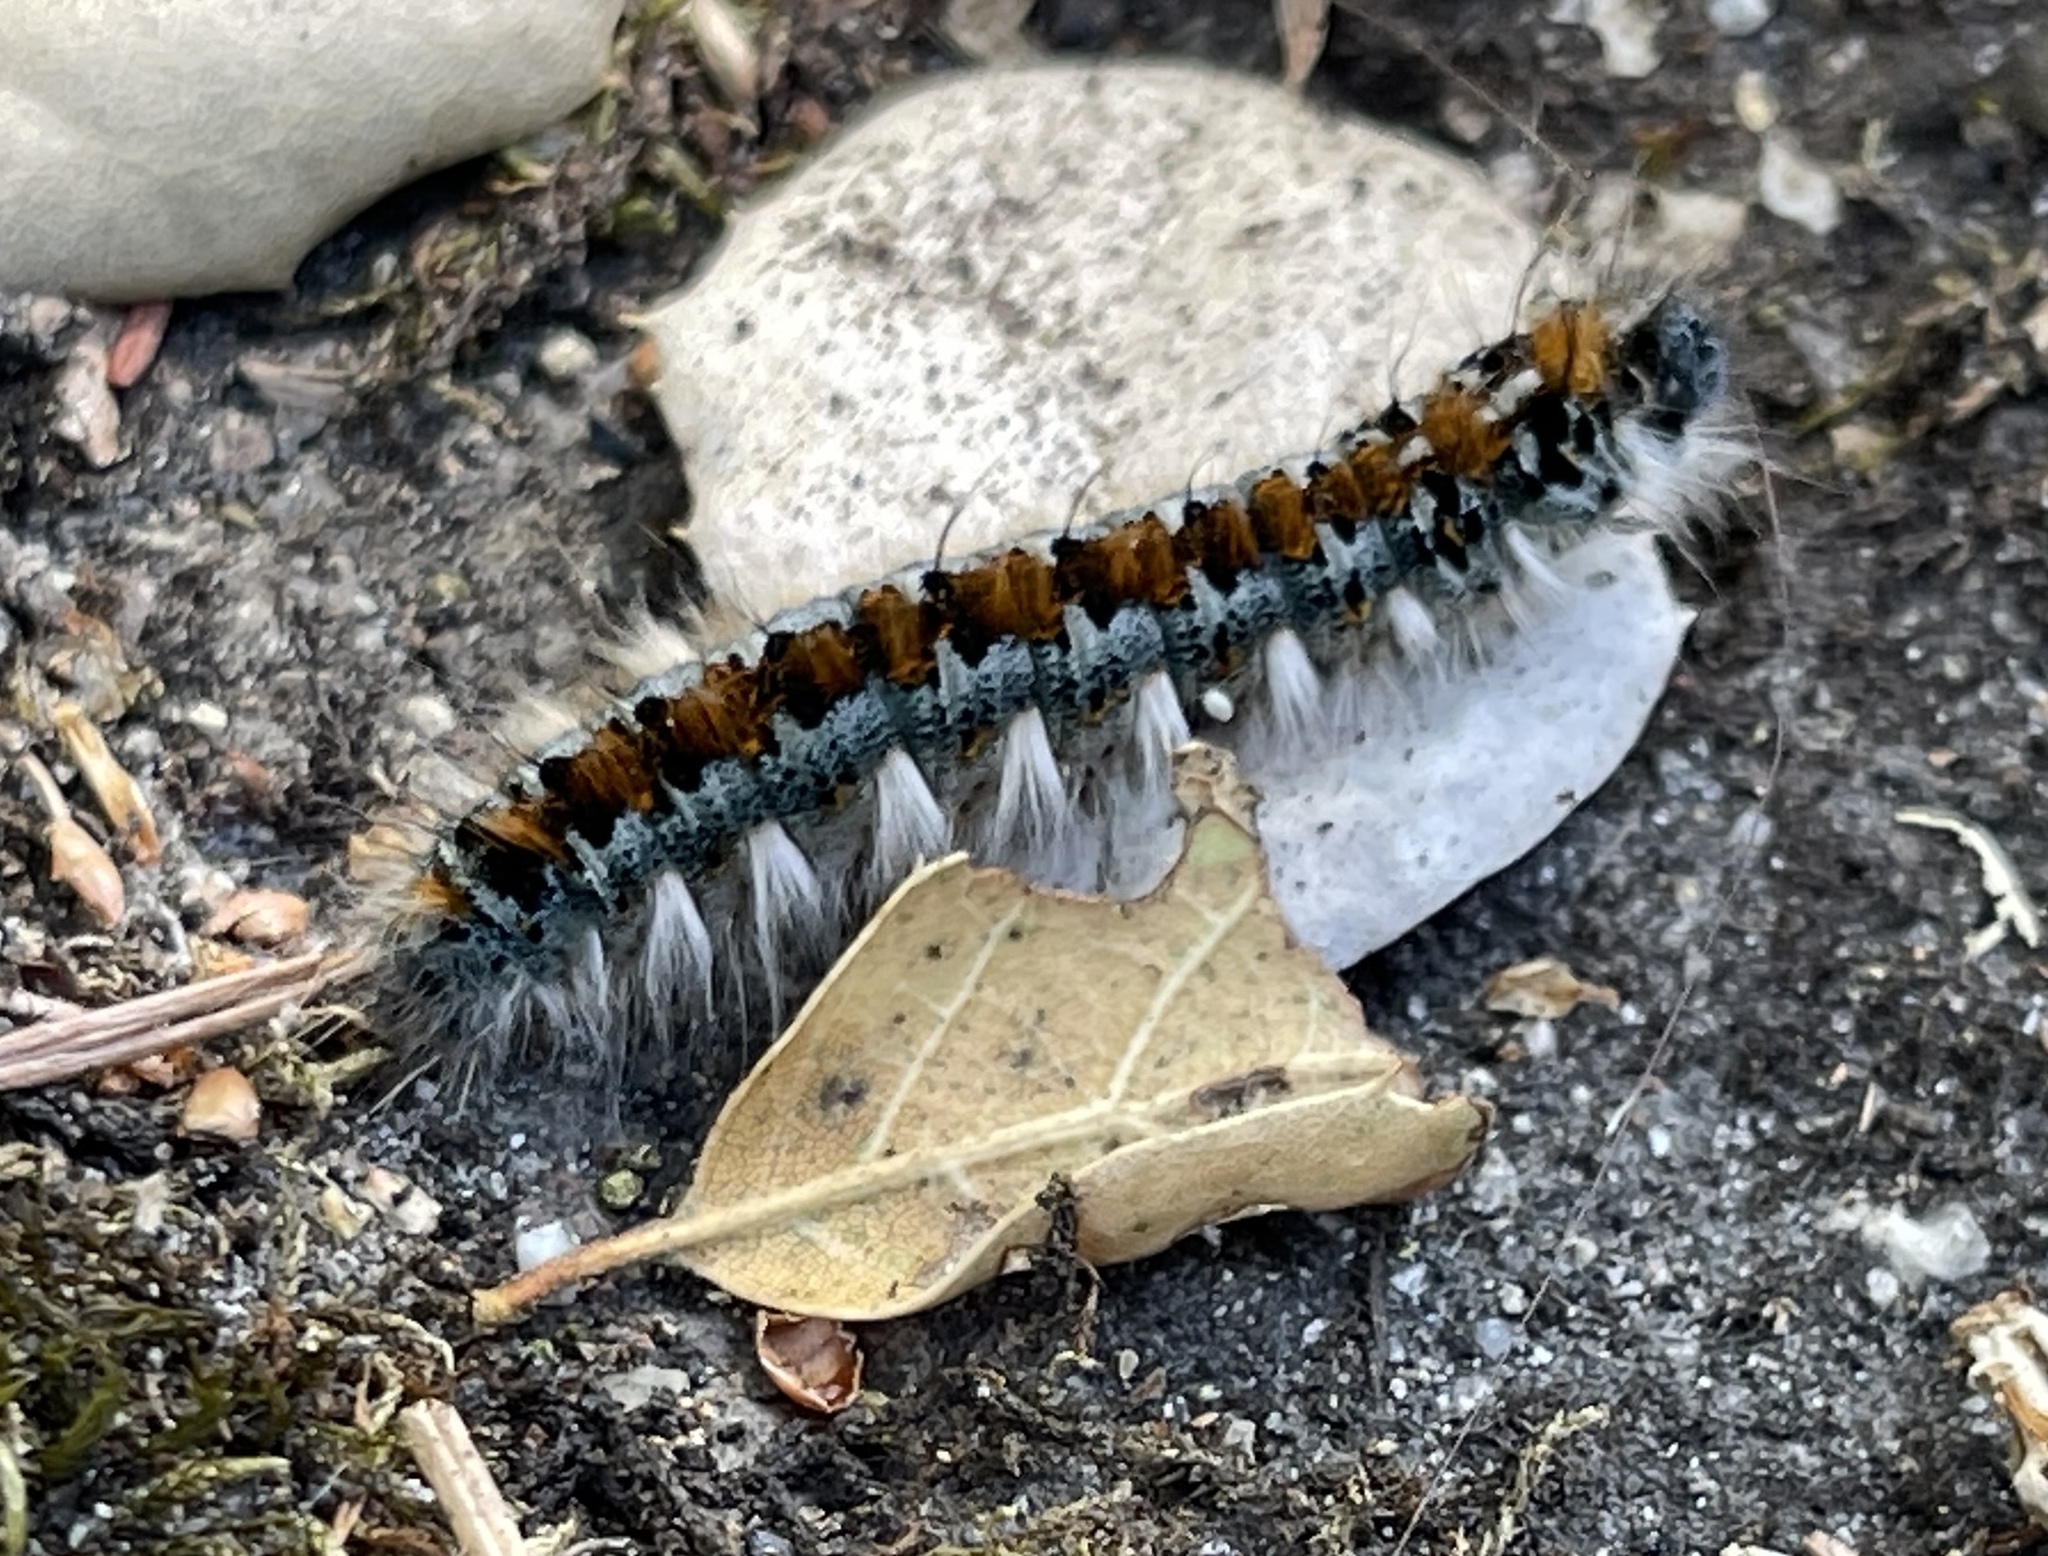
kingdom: Animalia
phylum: Arthropoda
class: Insecta
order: Lepidoptera
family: Lasiocampidae
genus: Malacosoma
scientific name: Malacosoma constricta
